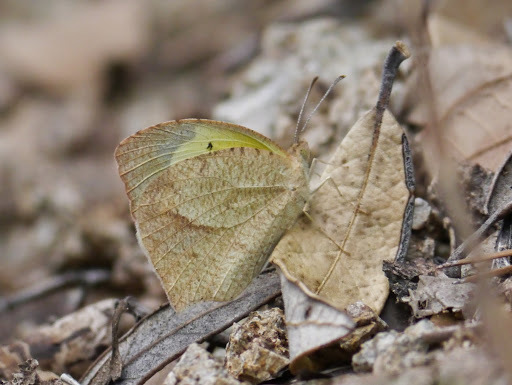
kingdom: Animalia
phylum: Arthropoda
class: Insecta
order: Lepidoptera
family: Pieridae
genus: Abaeis
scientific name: Abaeis mexicana
